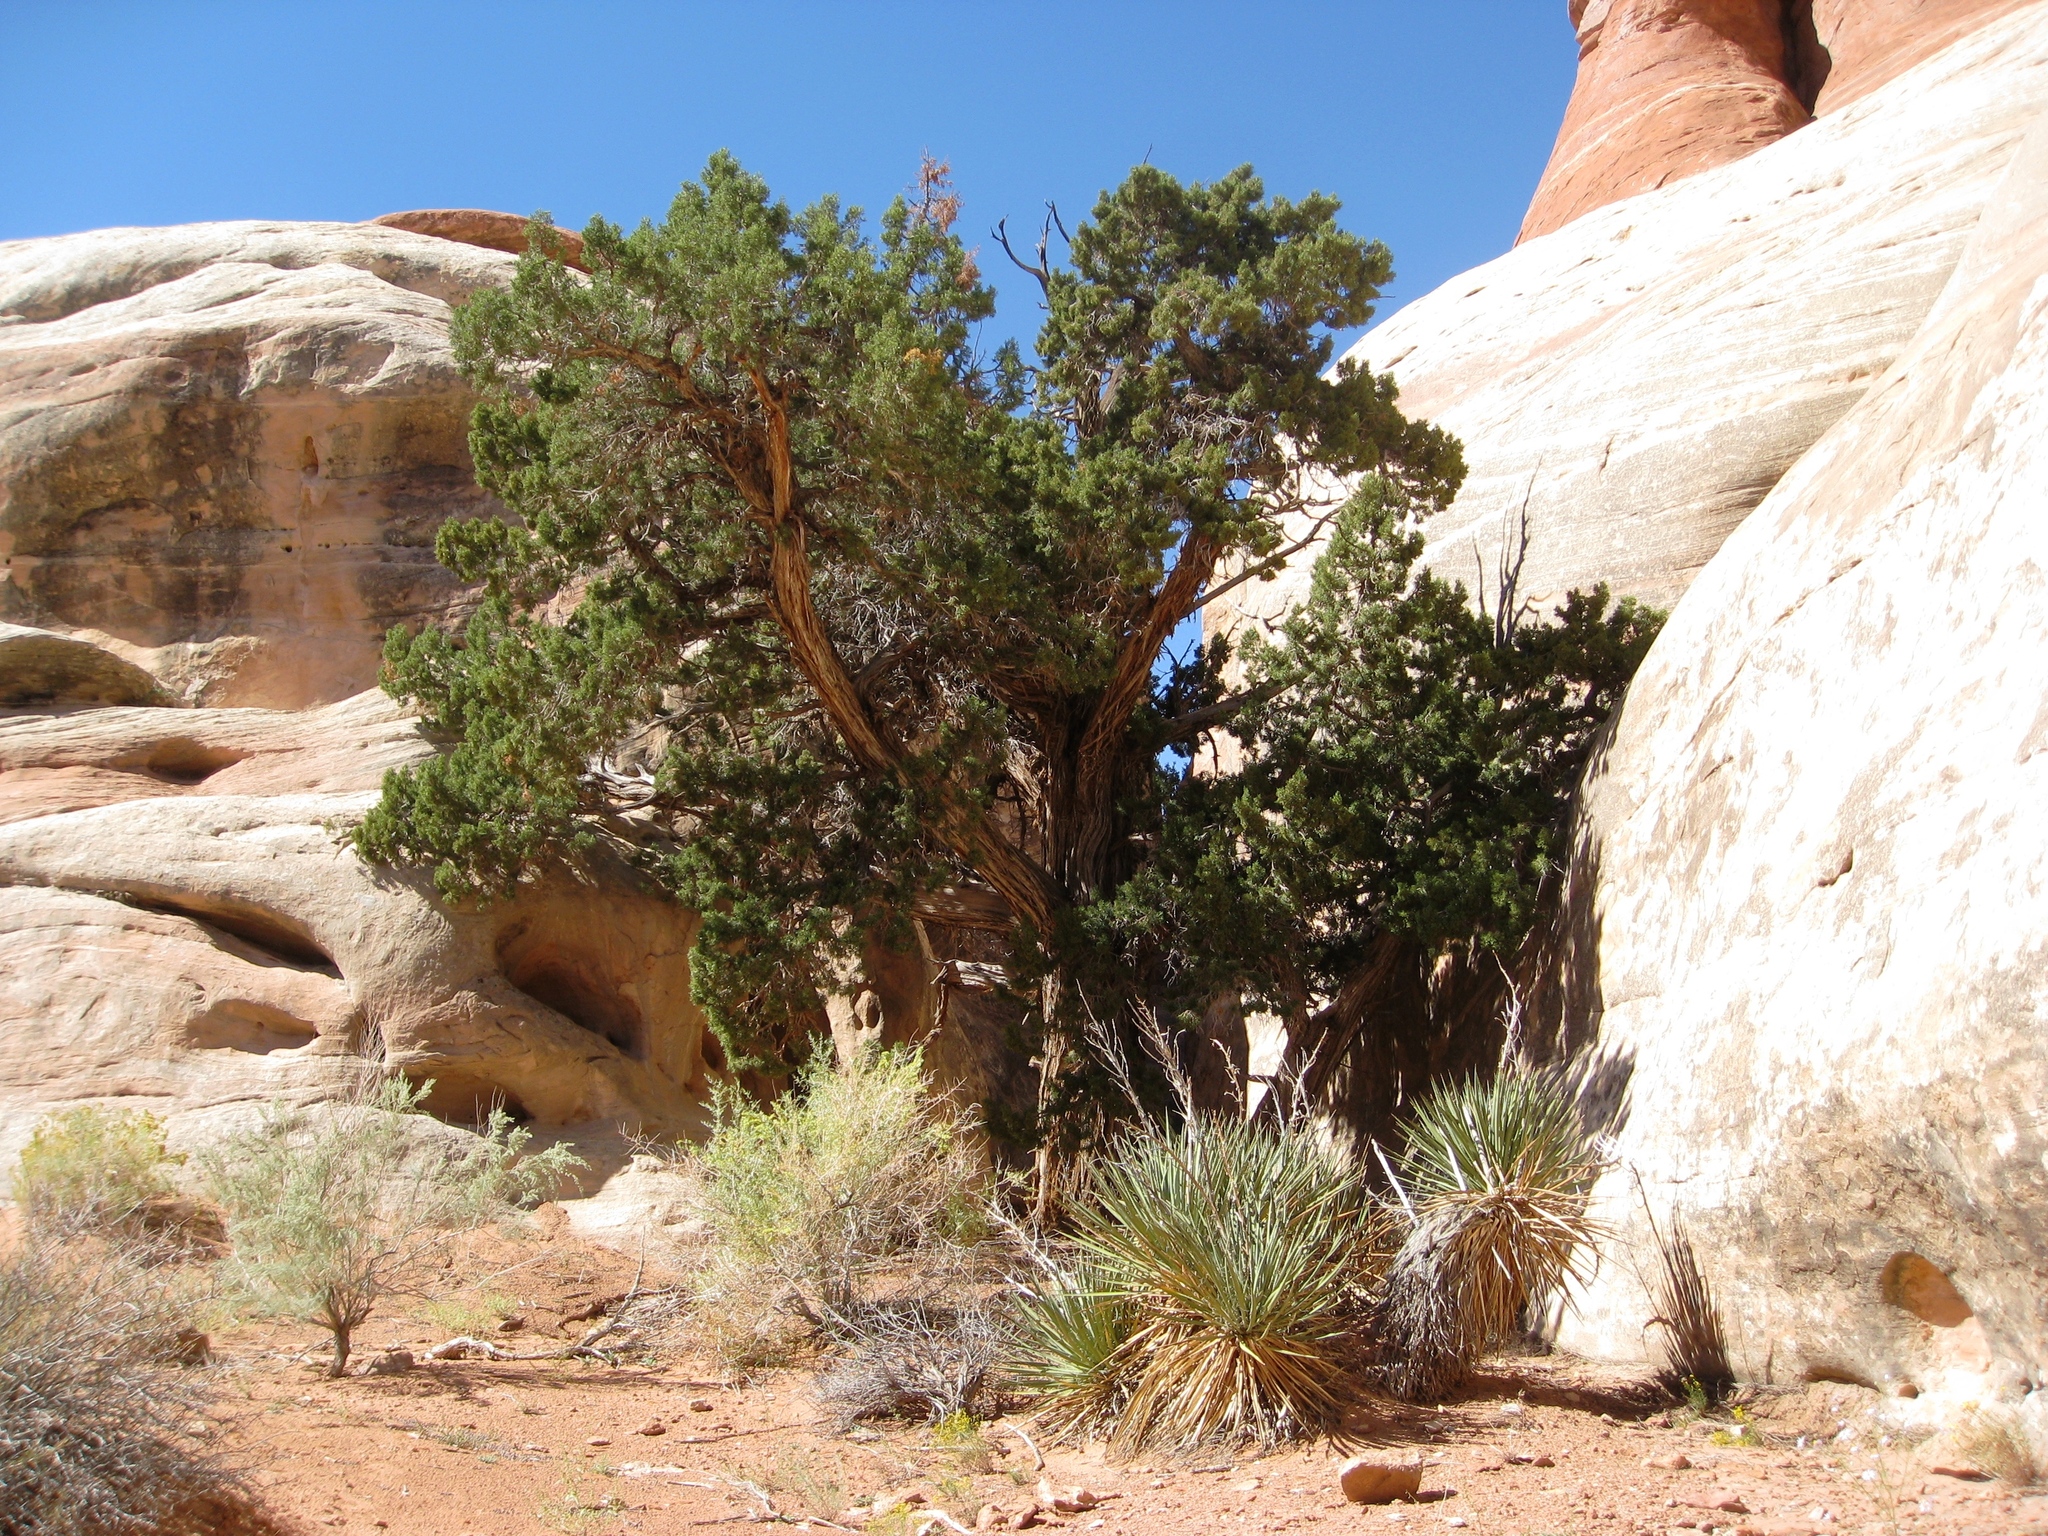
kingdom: Plantae
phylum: Tracheophyta
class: Pinopsida
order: Pinales
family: Pinaceae
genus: Pinus
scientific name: Pinus edulis
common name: Colorado pinyon
